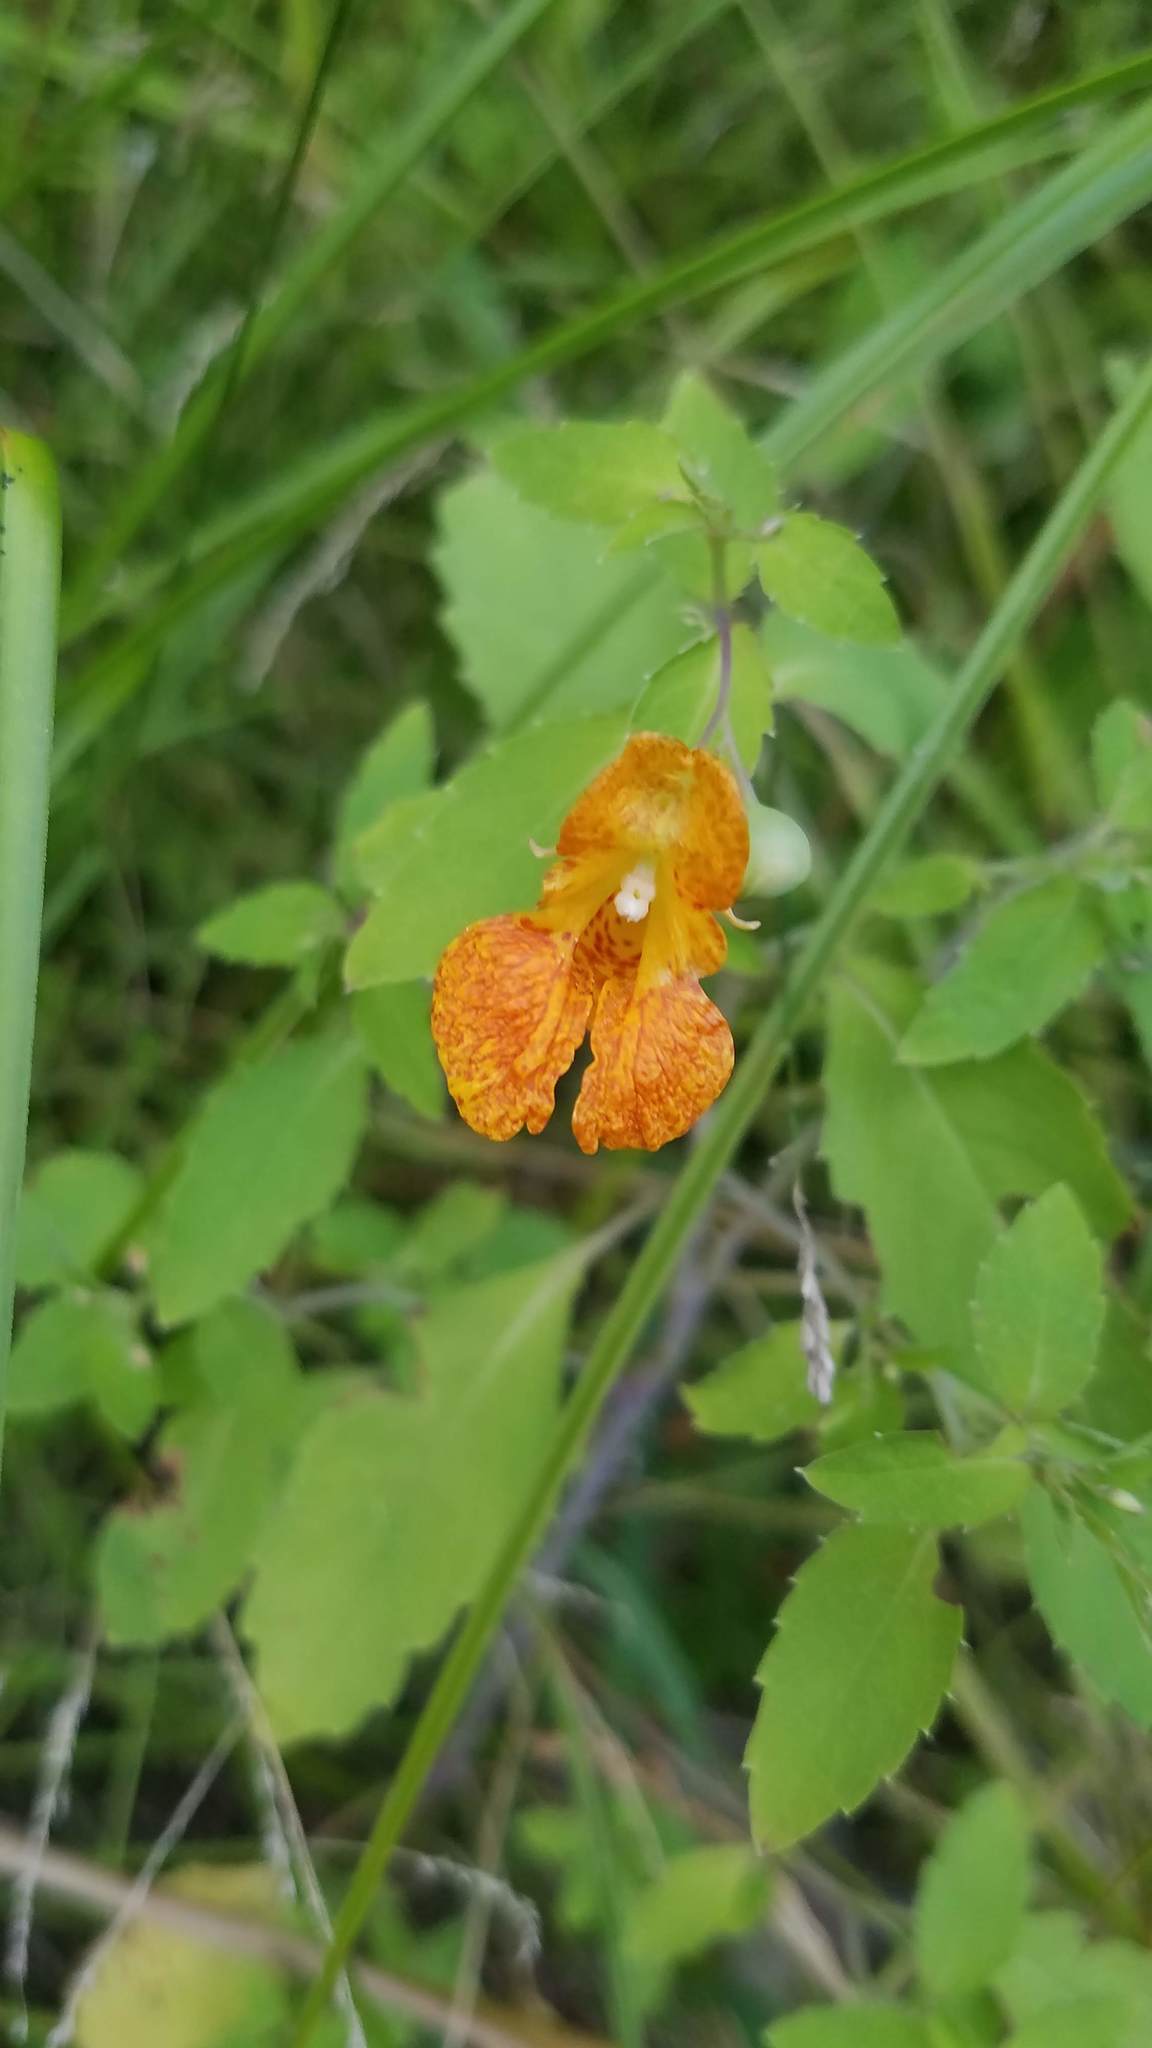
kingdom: Plantae
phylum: Tracheophyta
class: Magnoliopsida
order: Ericales
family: Balsaminaceae
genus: Impatiens
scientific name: Impatiens capensis
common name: Orange balsam
